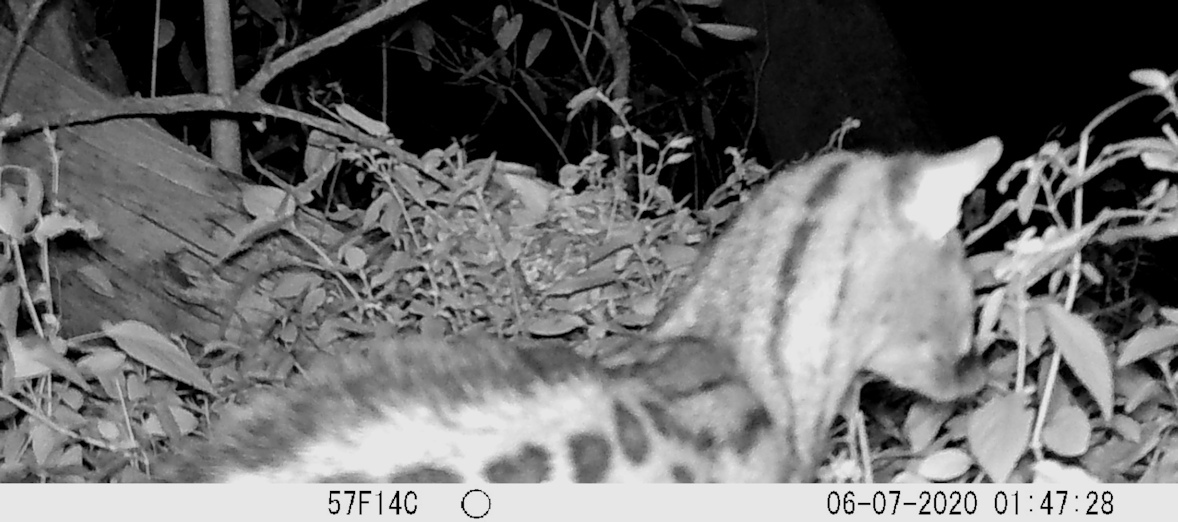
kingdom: Animalia
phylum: Chordata
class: Mammalia
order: Carnivora
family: Viverridae
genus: Genetta
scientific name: Genetta maculata
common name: Rusty-spotted genet
